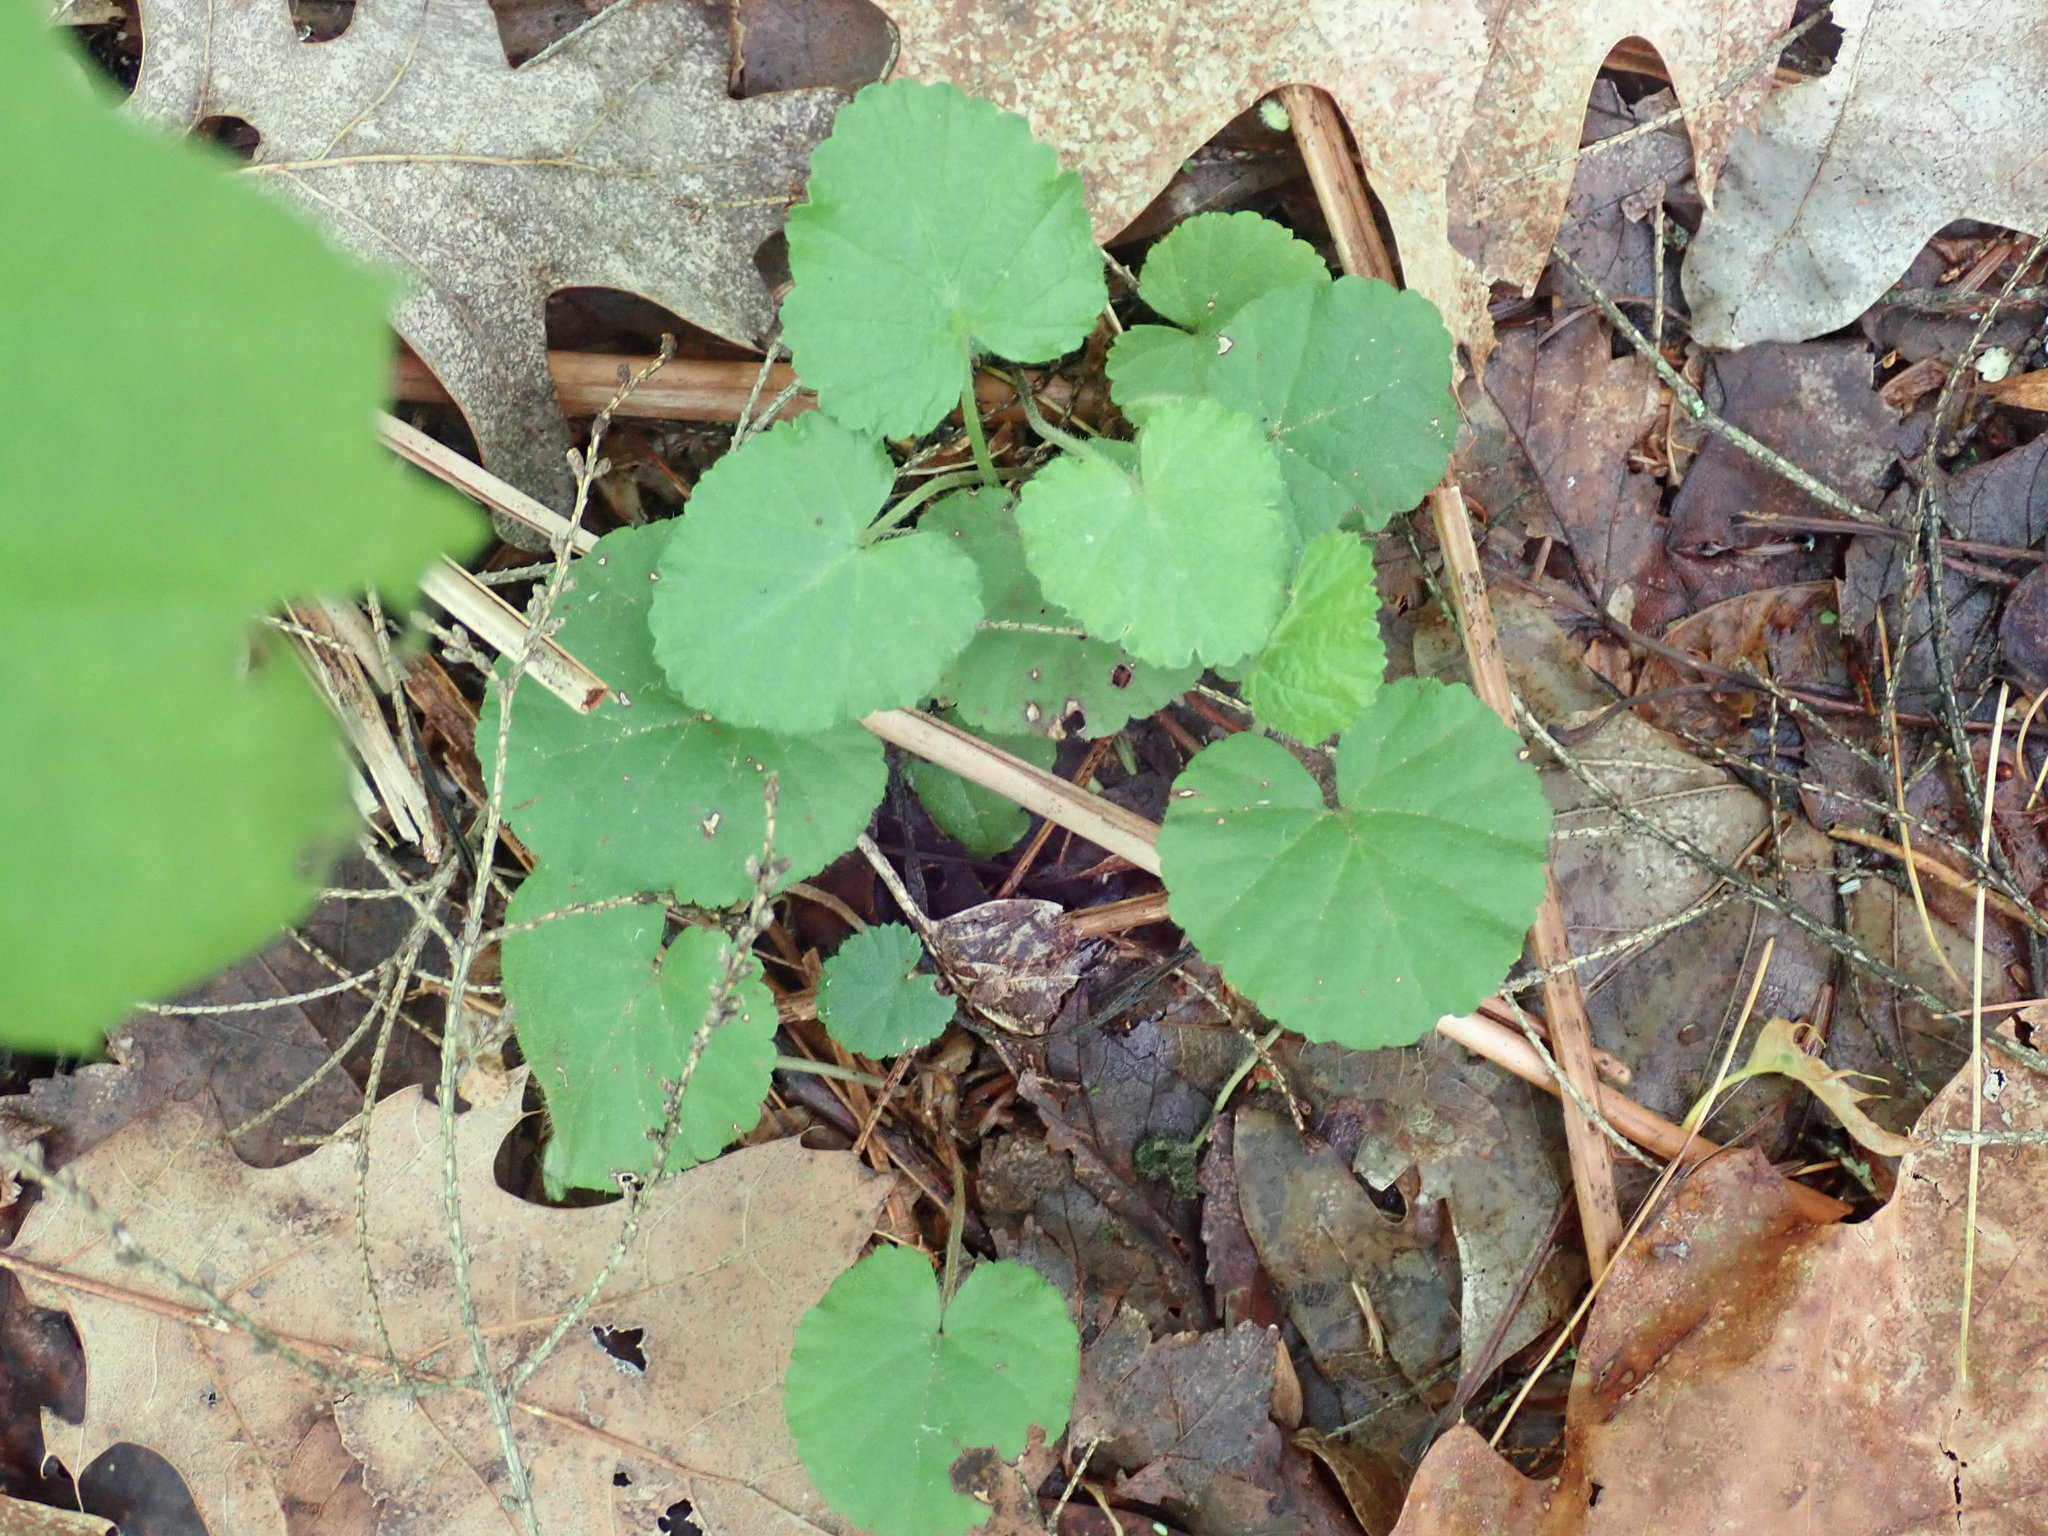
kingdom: Plantae
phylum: Tracheophyta
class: Magnoliopsida
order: Rosales
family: Rosaceae
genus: Dalibarda
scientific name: Dalibarda repens
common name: Dewdrop
